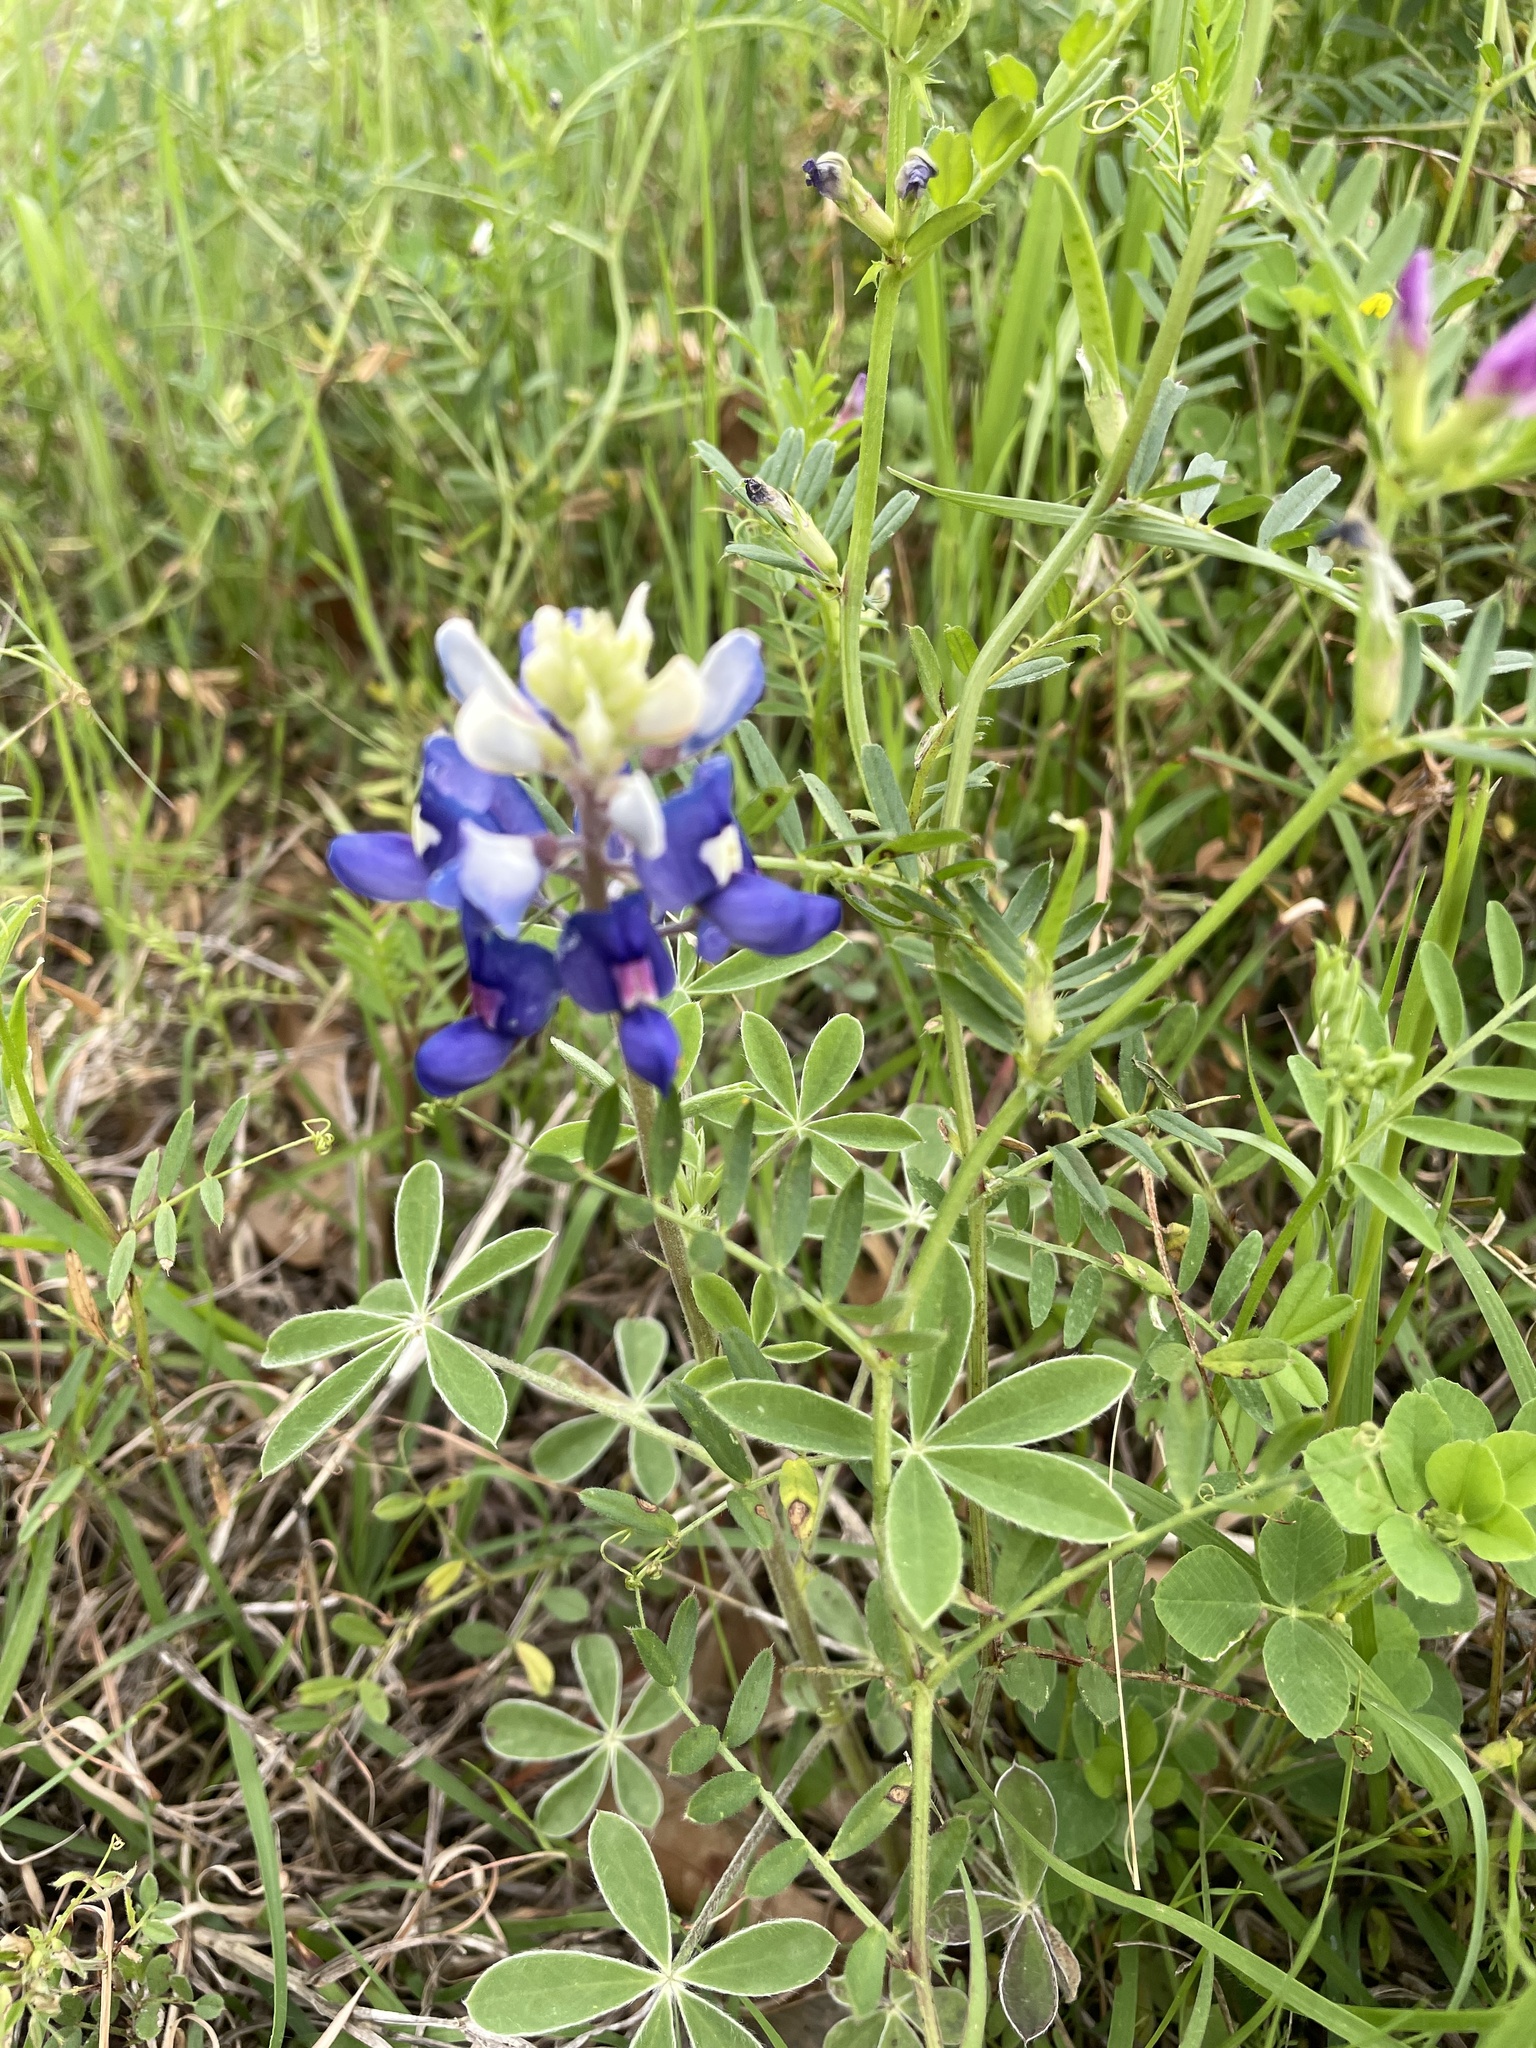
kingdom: Plantae
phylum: Tracheophyta
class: Magnoliopsida
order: Fabales
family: Fabaceae
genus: Lupinus
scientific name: Lupinus texensis
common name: Texas bluebonnet
